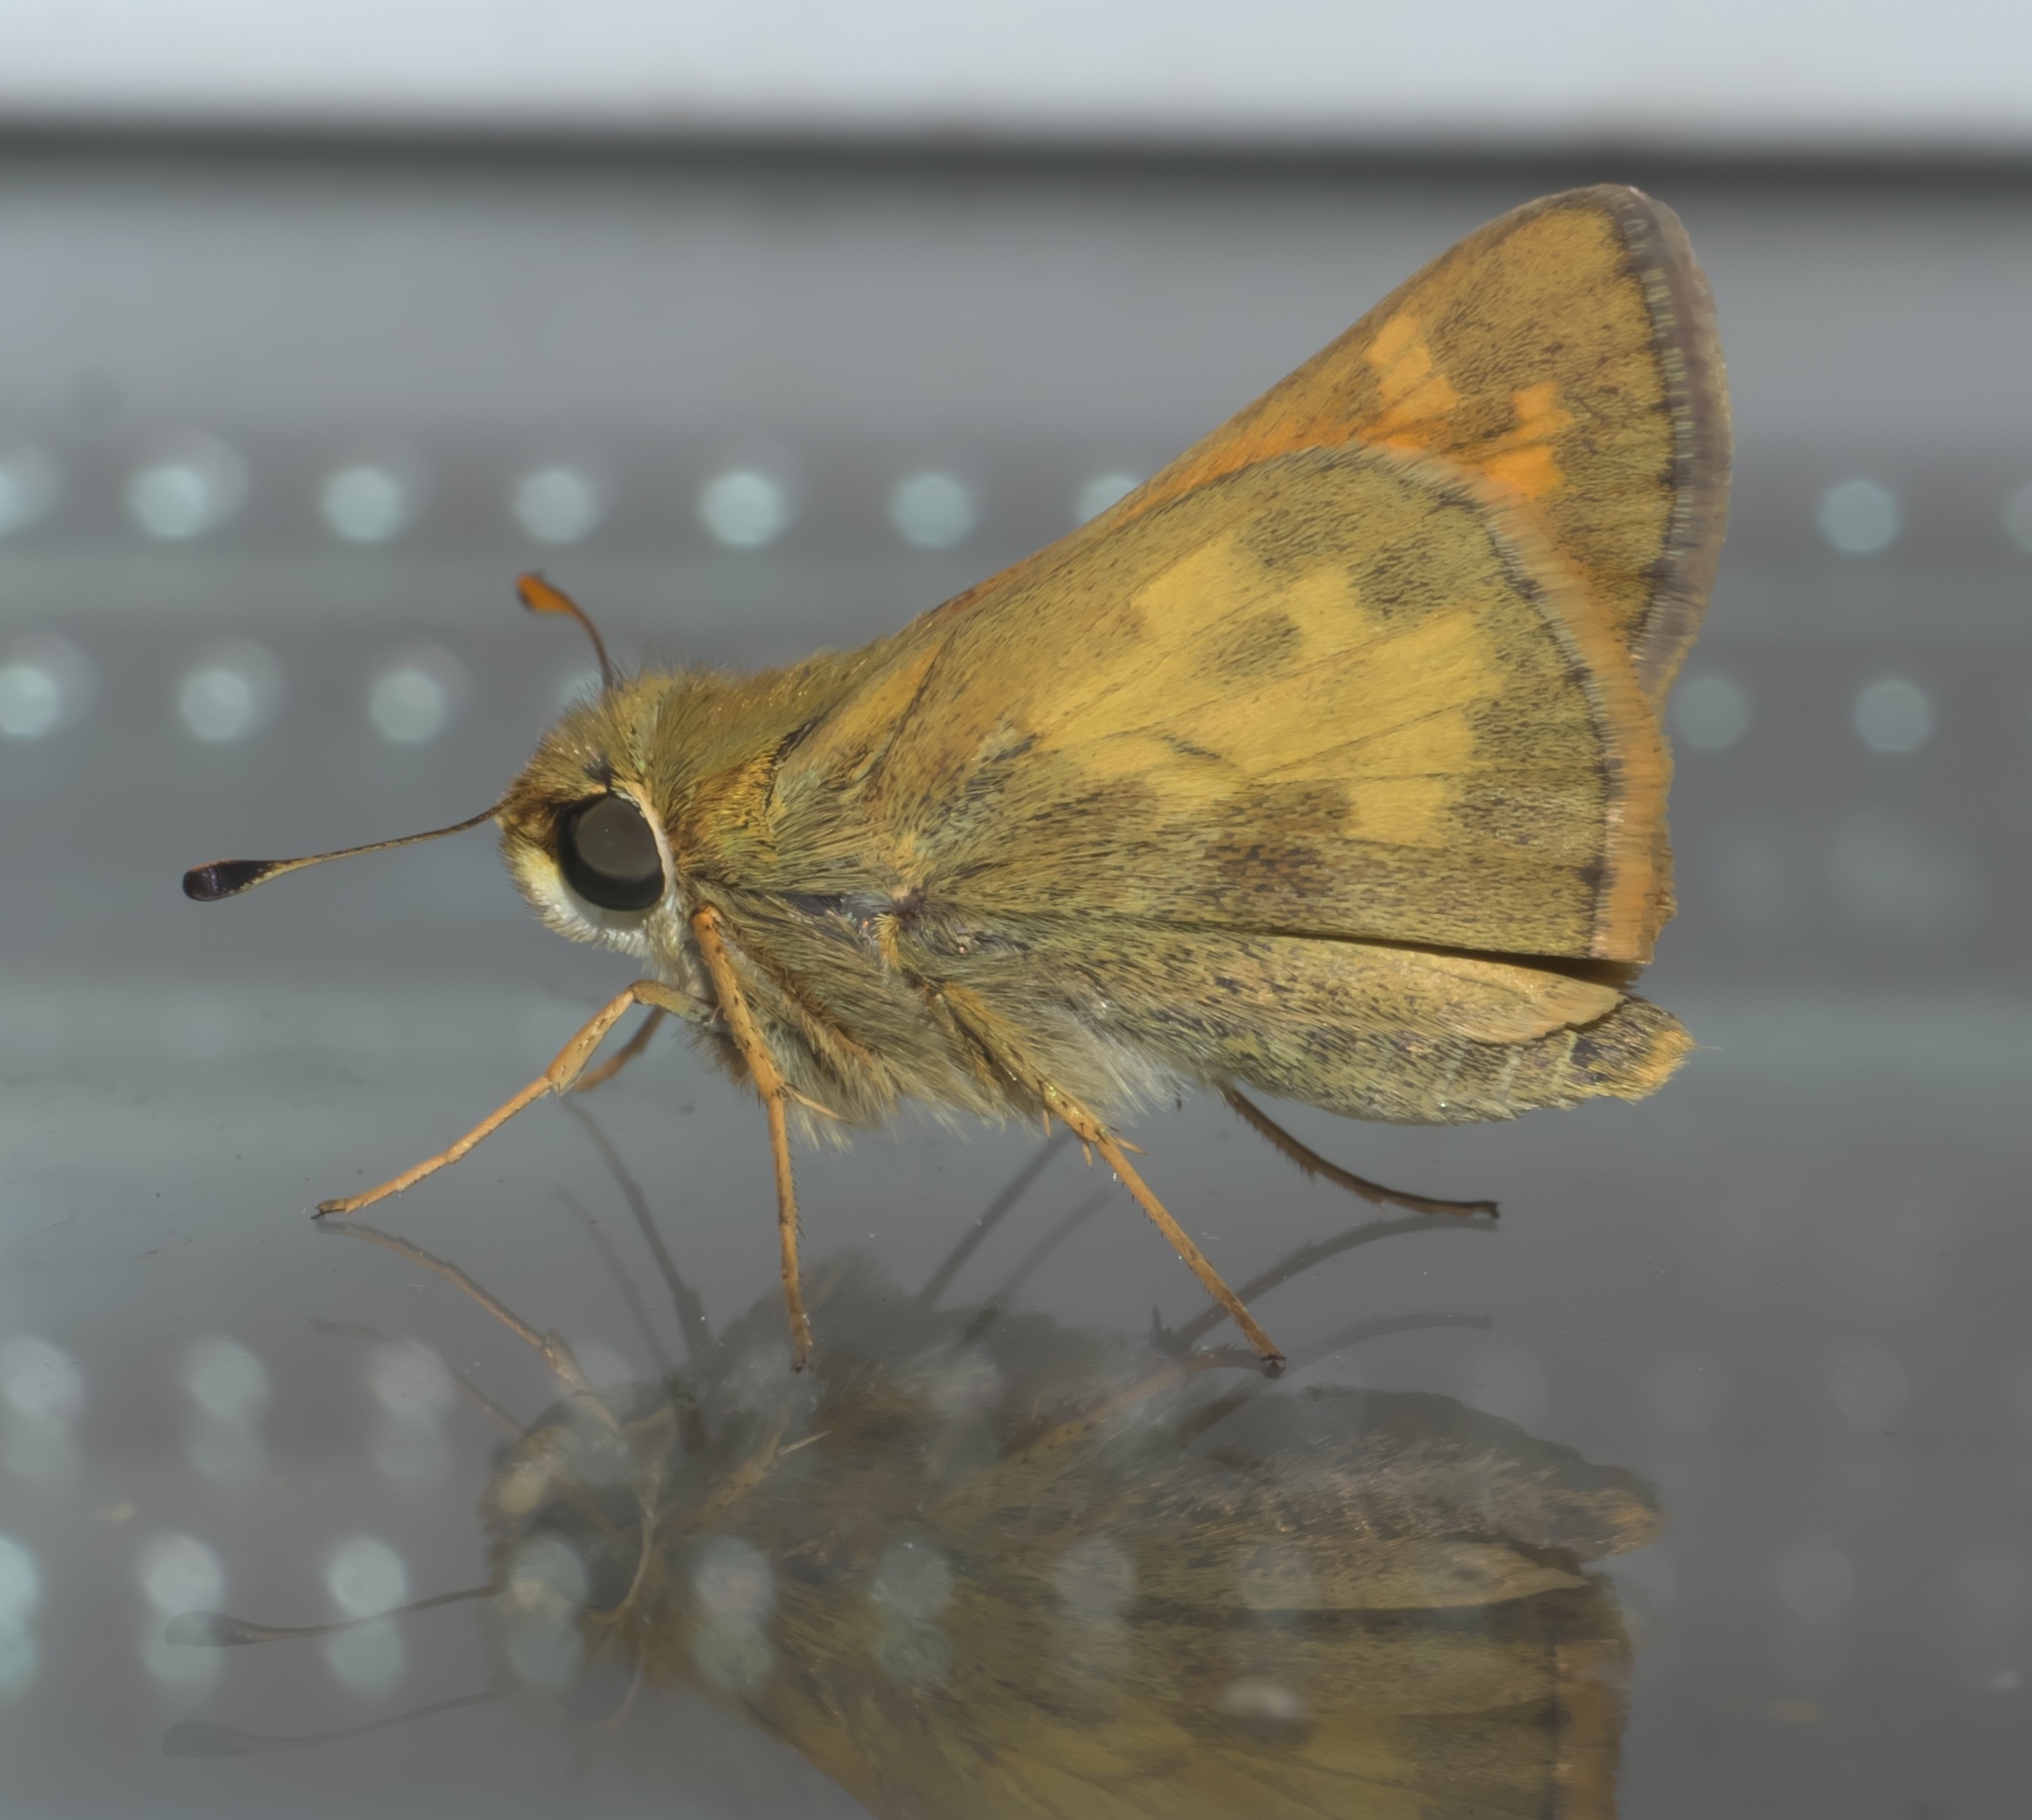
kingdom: Animalia
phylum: Arthropoda
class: Insecta
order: Lepidoptera
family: Hesperiidae
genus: Atalopedes
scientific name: Atalopedes
